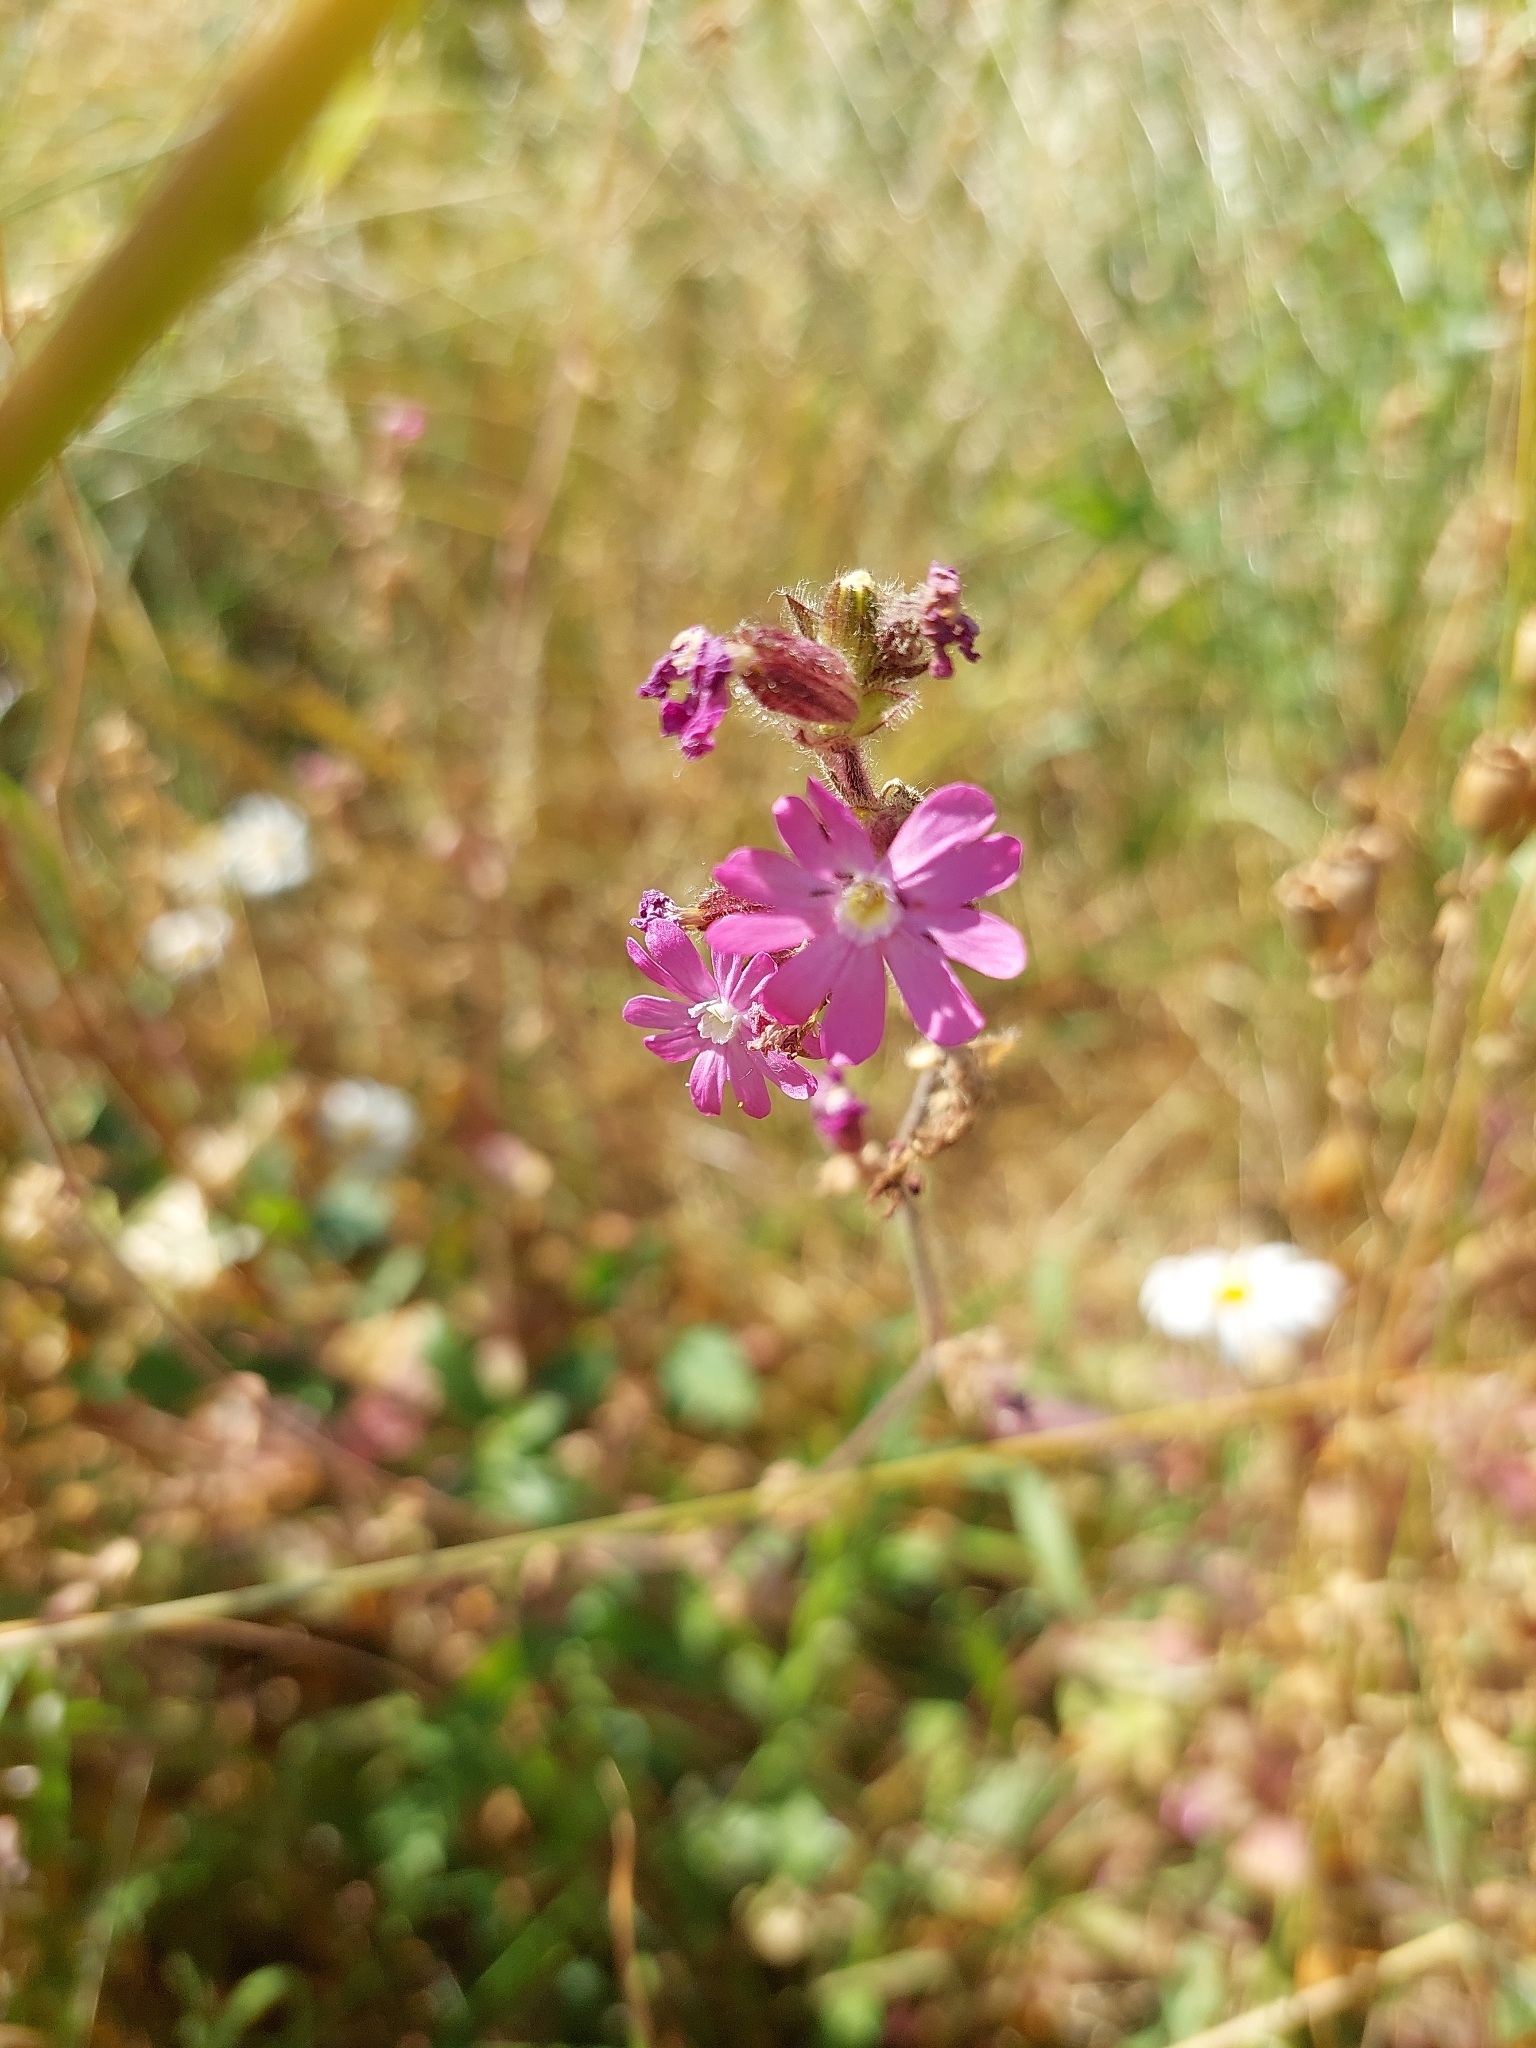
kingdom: Plantae
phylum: Tracheophyta
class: Magnoliopsida
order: Caryophyllales
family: Caryophyllaceae
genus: Silene
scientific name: Silene dioica
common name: Red campion
